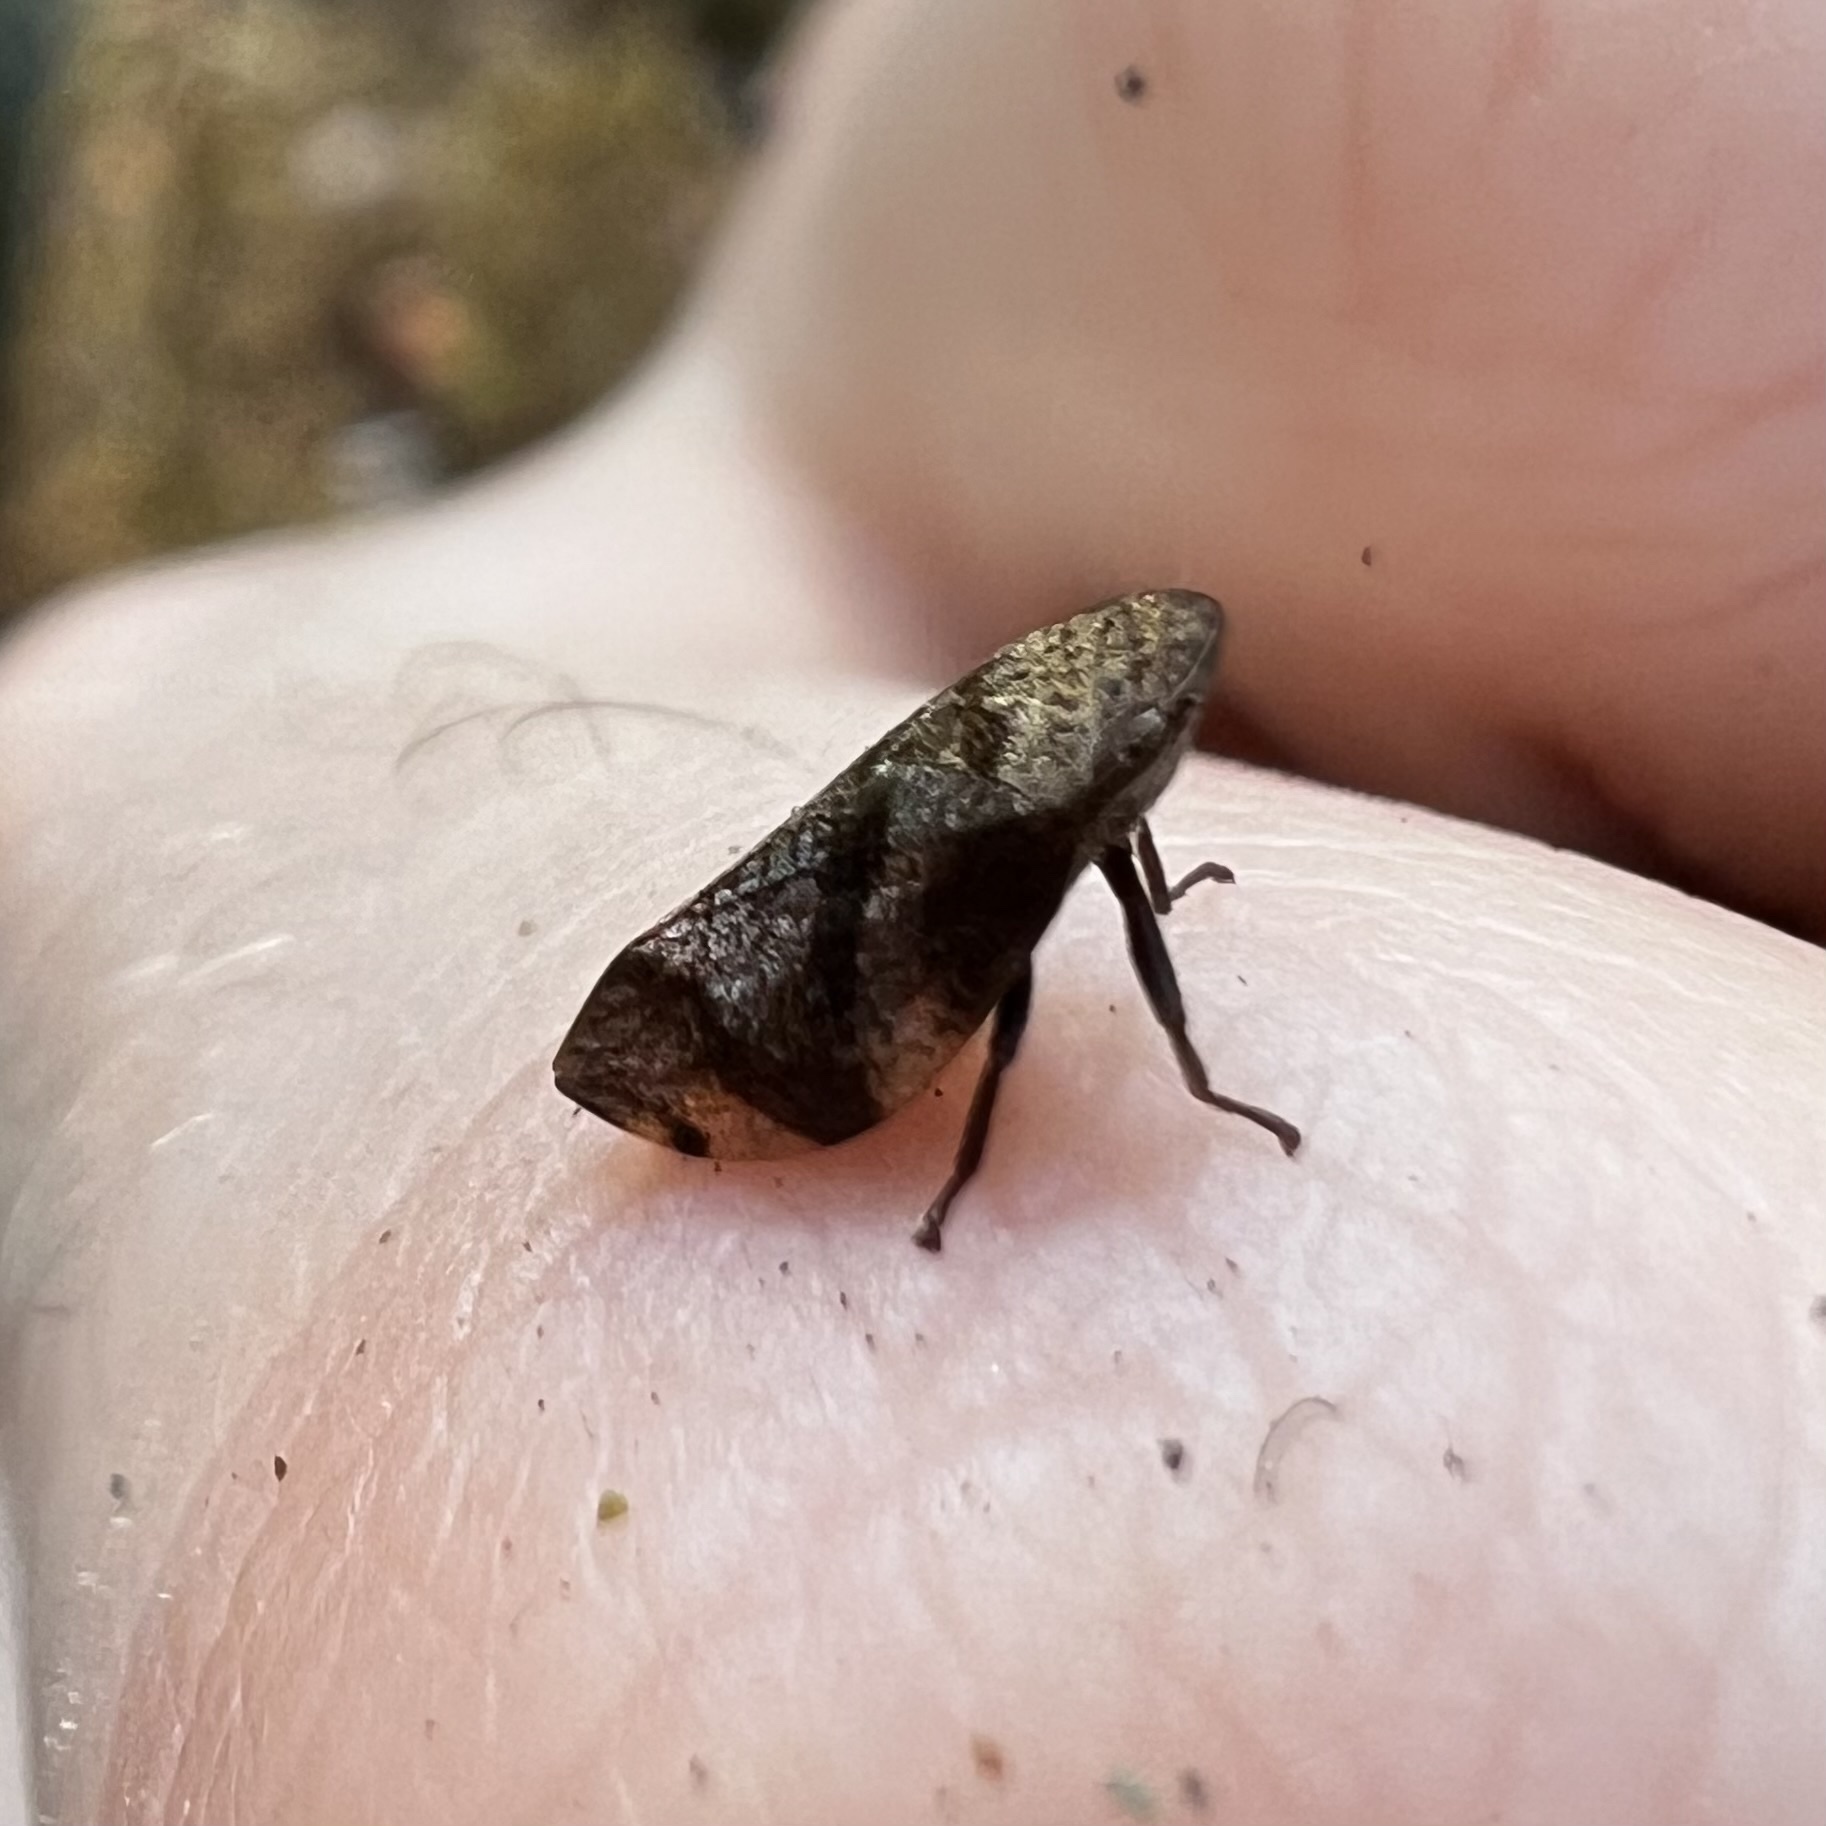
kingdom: Animalia
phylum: Arthropoda
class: Insecta
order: Hemiptera
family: Aphrophoridae
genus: Lepyronia
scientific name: Lepyronia quadrangularis
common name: Diamond-backed spittlebug
